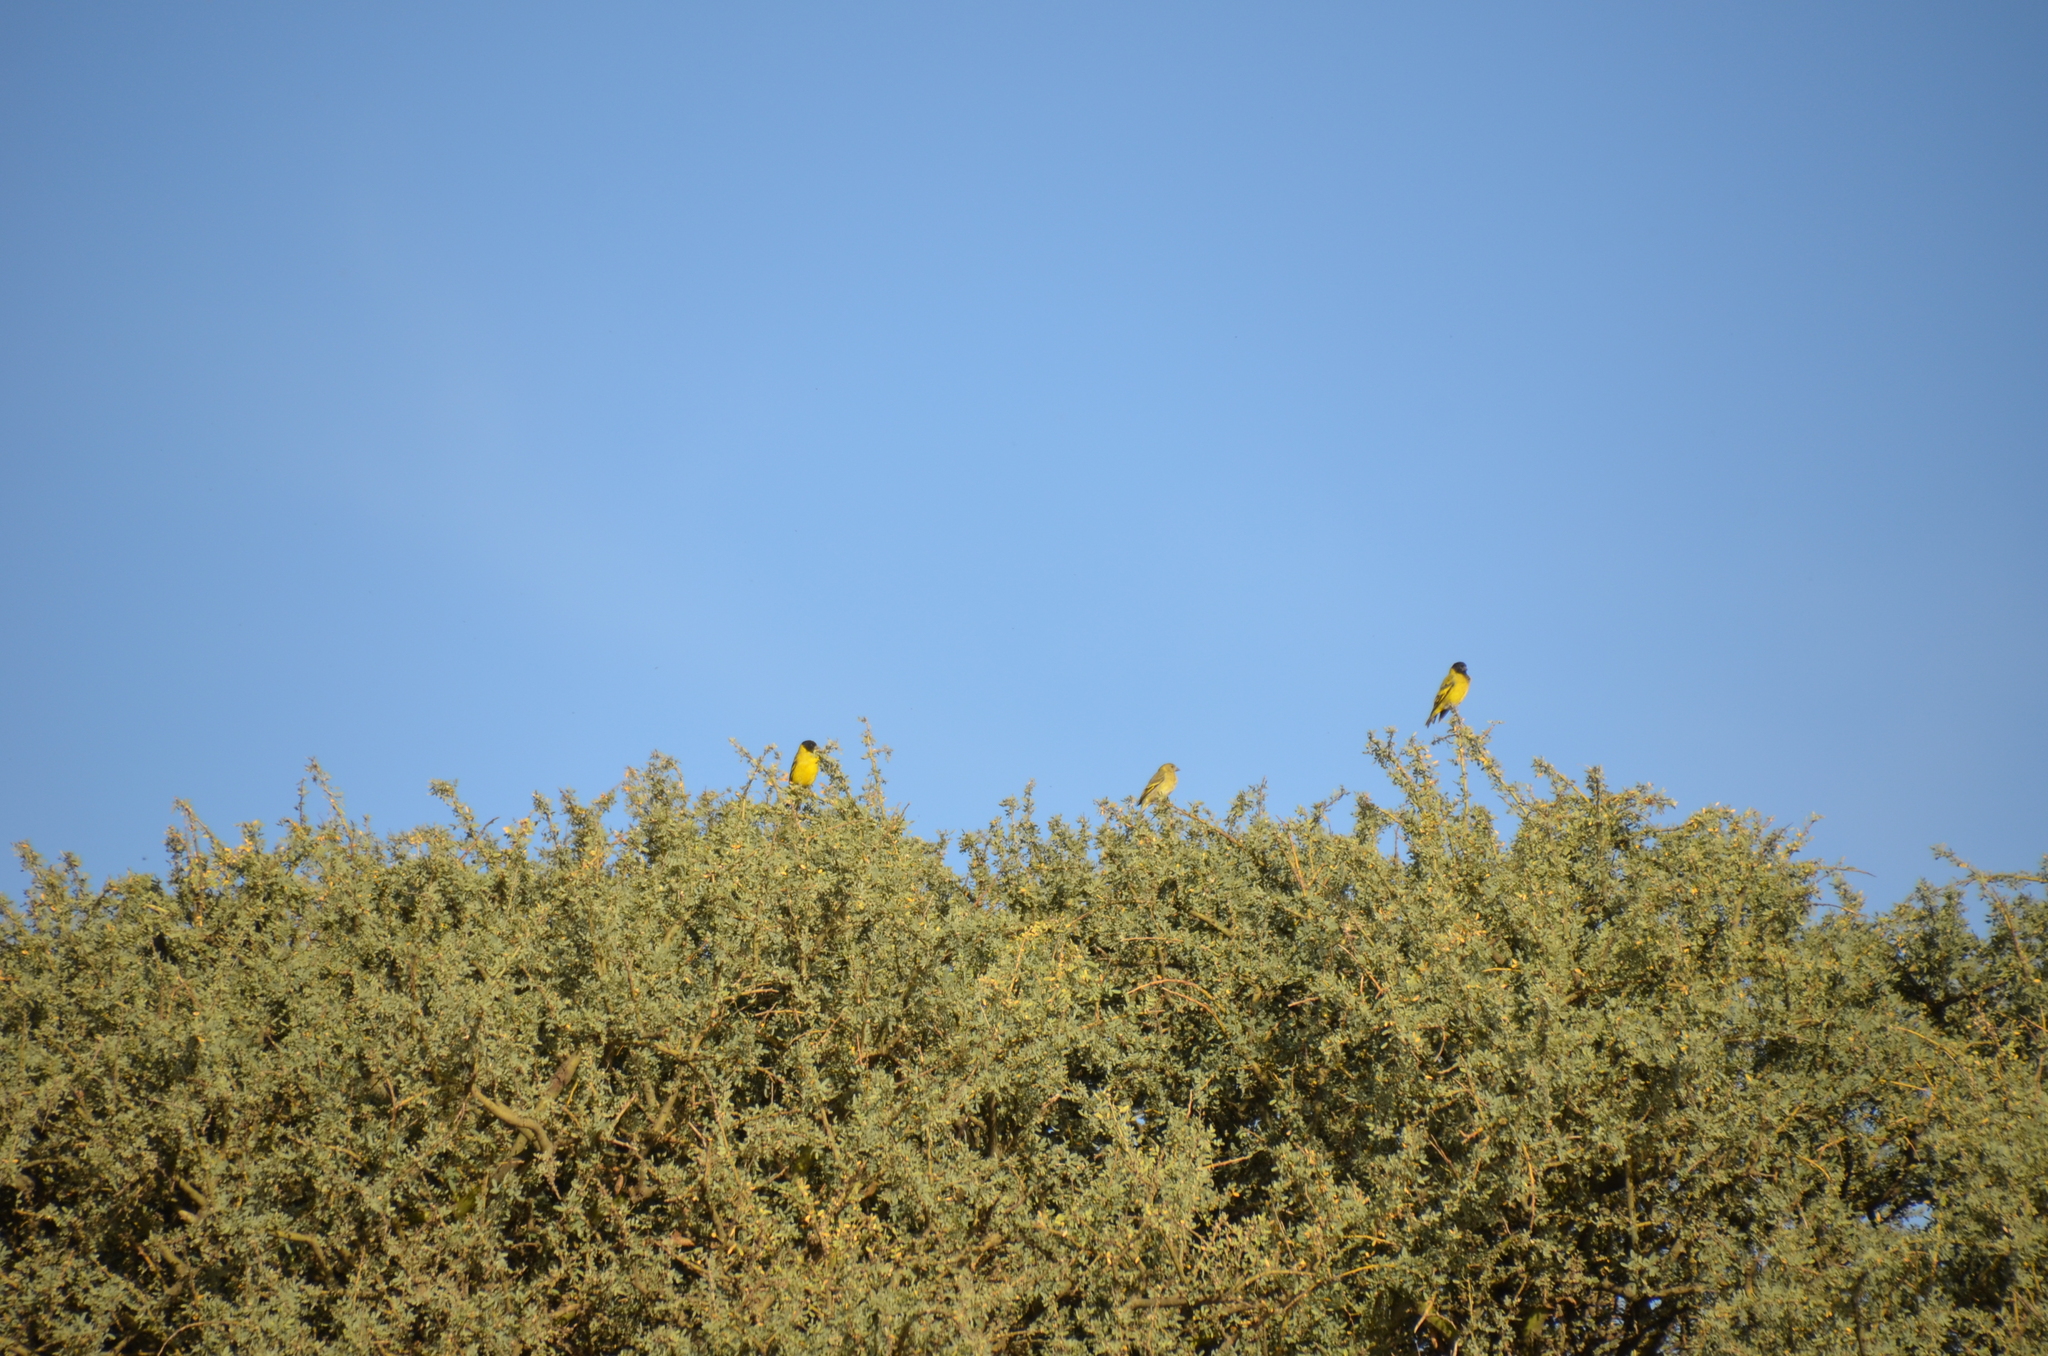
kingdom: Animalia
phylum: Chordata
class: Aves
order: Passeriformes
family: Fringillidae
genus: Spinus
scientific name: Spinus magellanicus
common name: Hooded siskin
